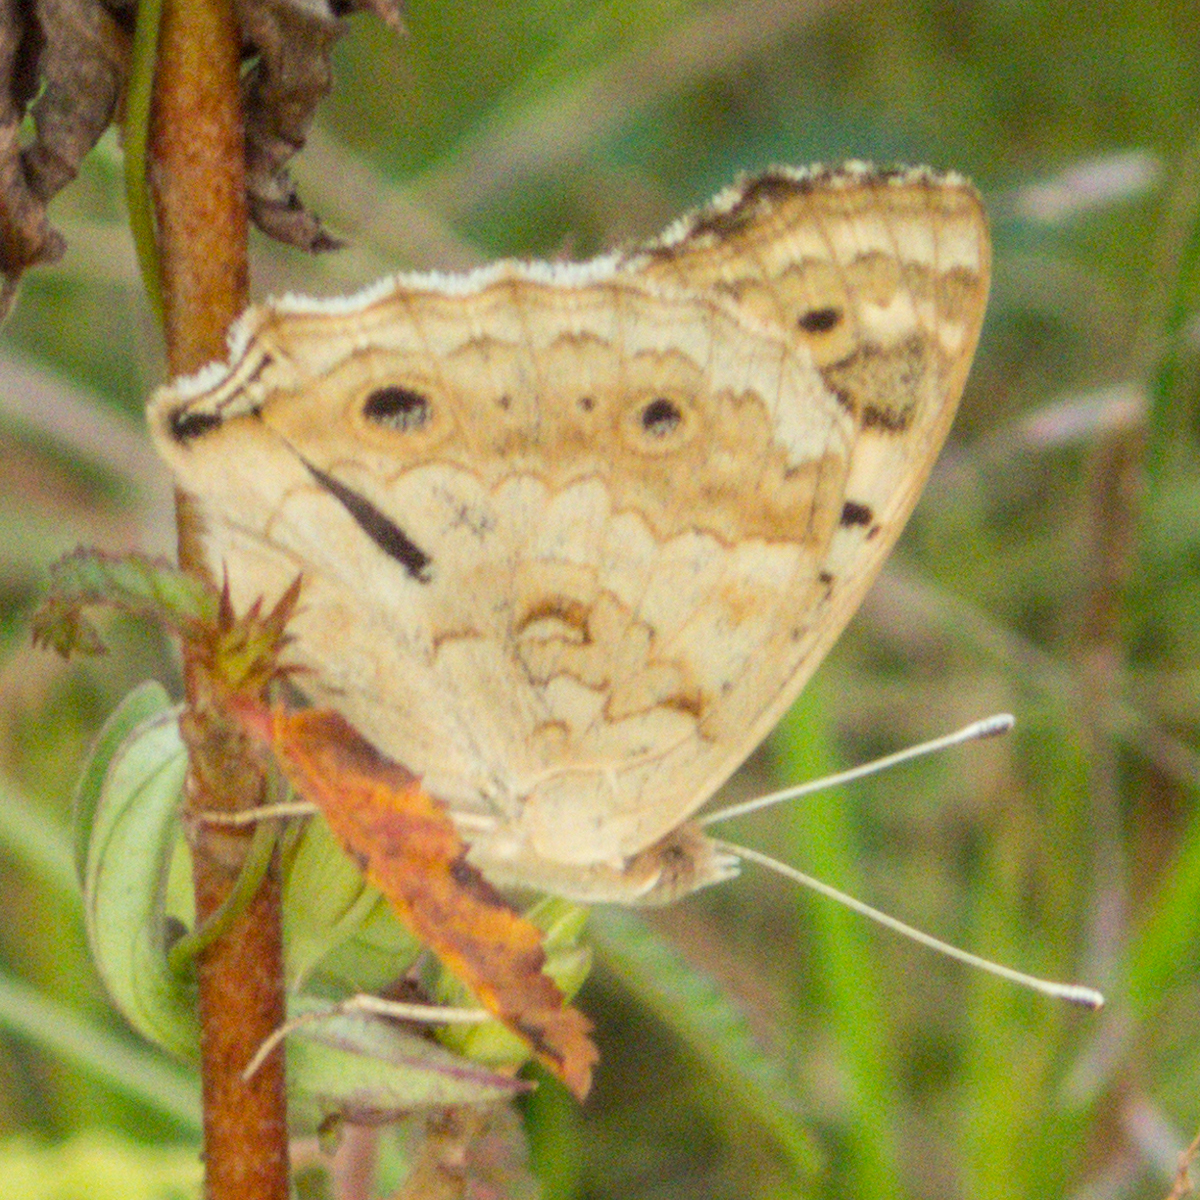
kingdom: Animalia
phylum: Arthropoda
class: Insecta
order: Lepidoptera
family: Nymphalidae
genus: Junonia
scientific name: Junonia orithya
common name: Blue pansy
